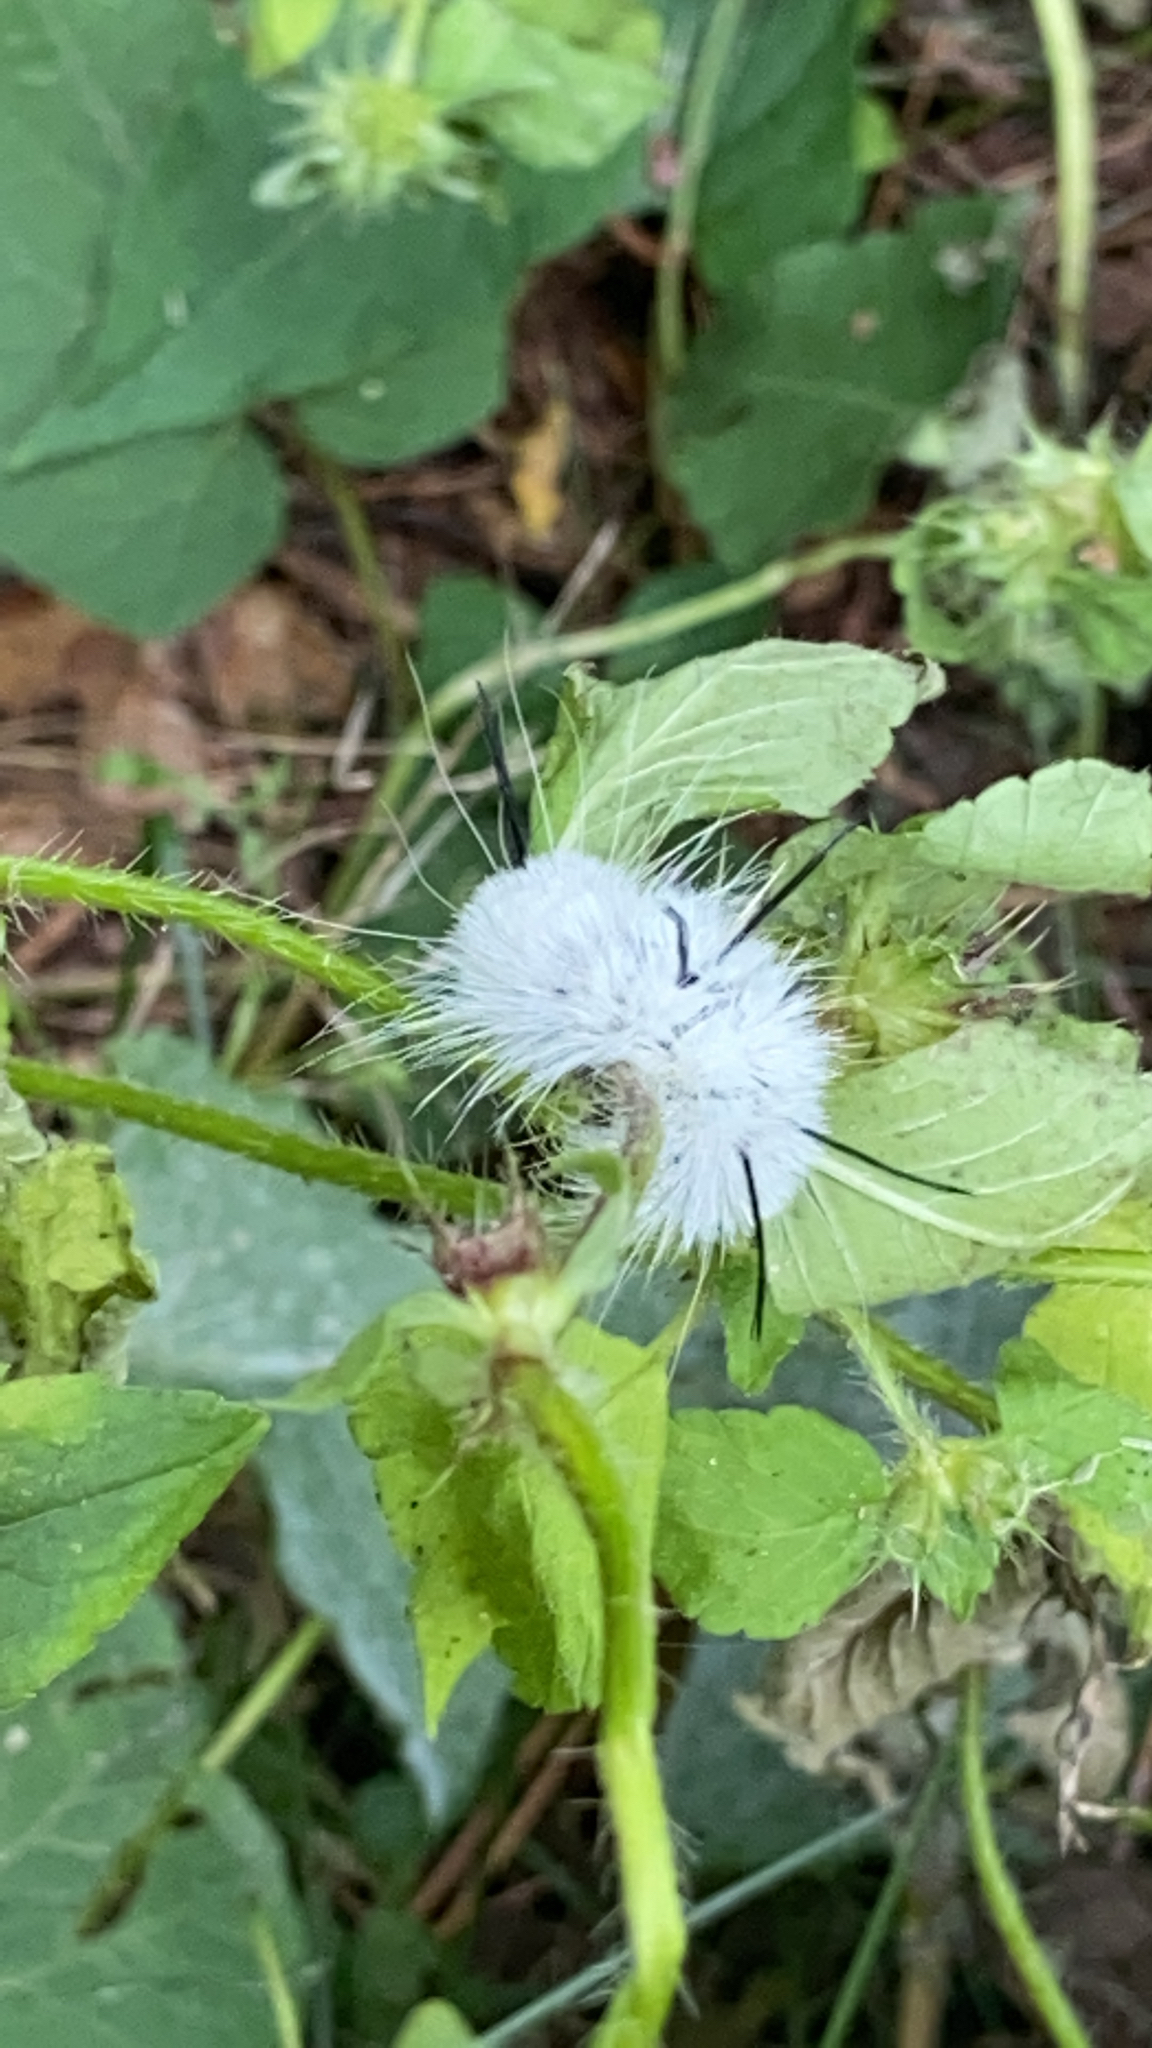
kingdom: Animalia
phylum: Arthropoda
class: Insecta
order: Lepidoptera
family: Noctuidae
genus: Acronicta
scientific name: Acronicta americana
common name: American dagger
